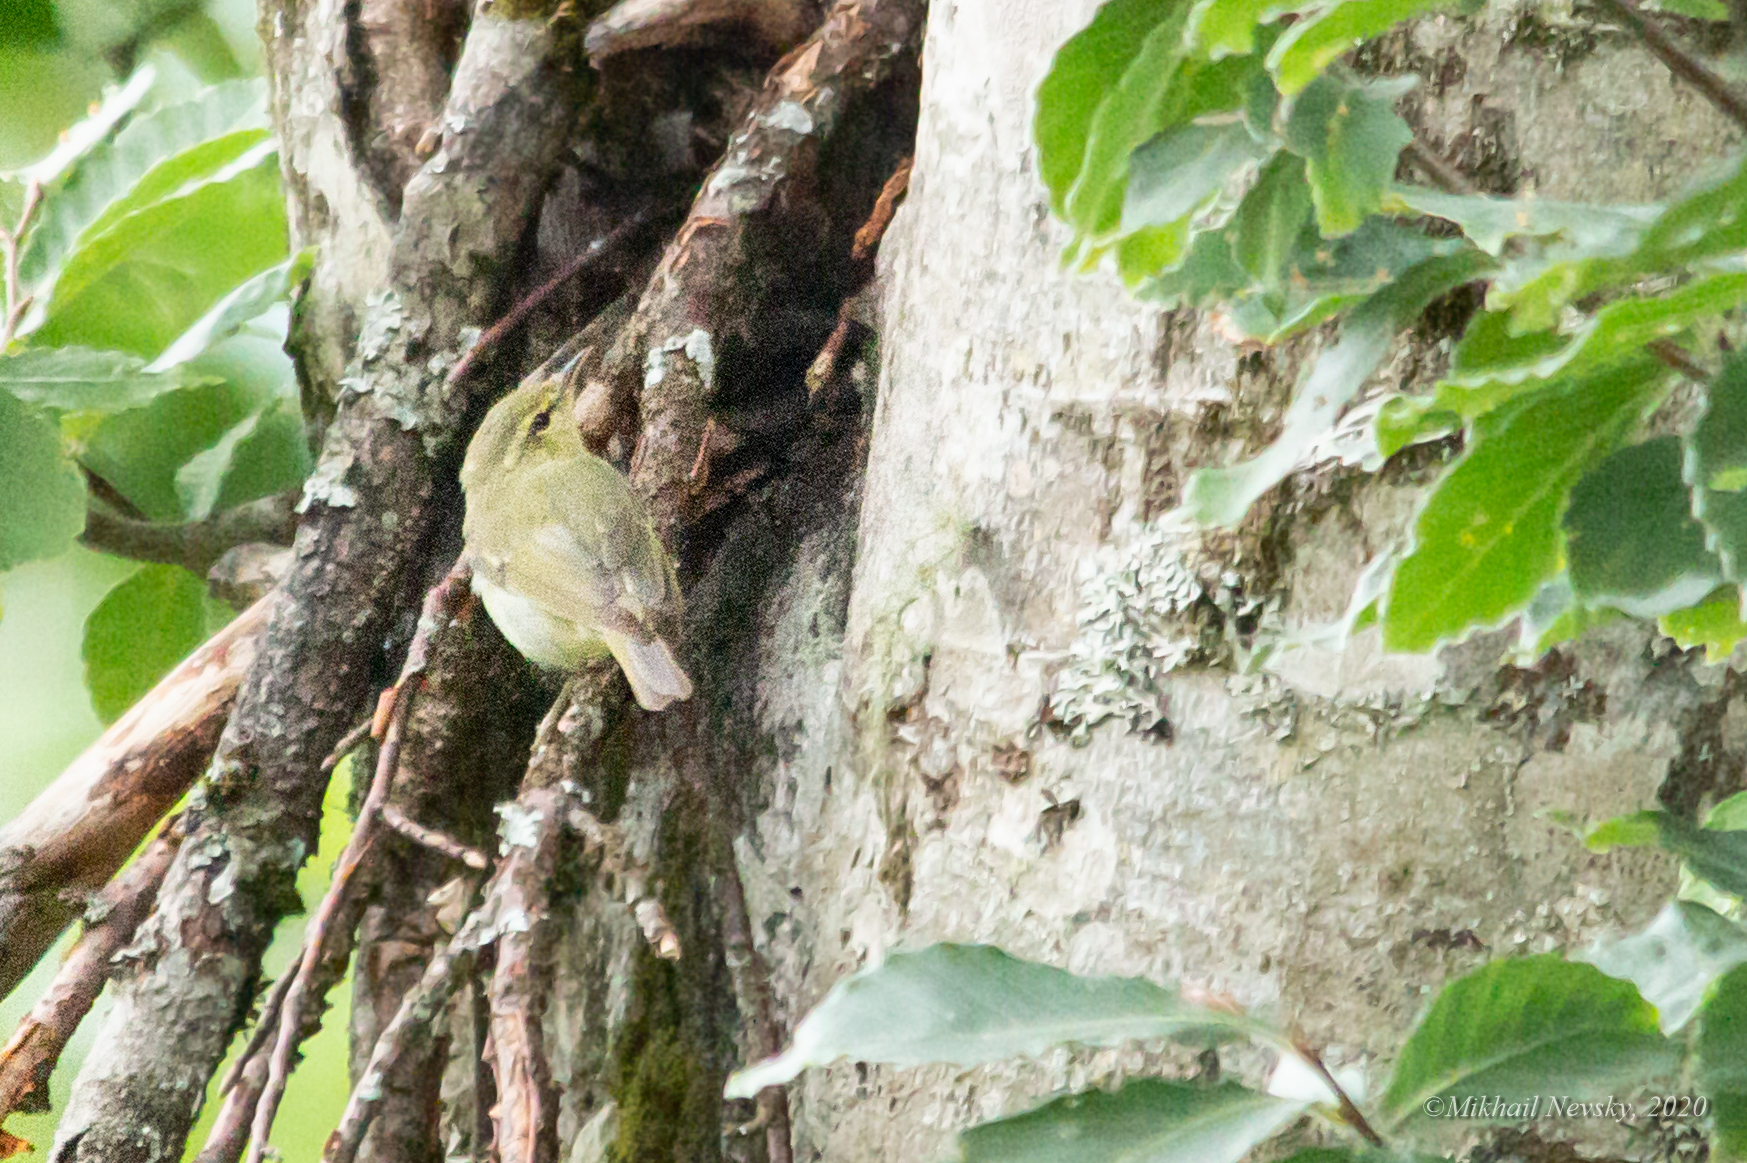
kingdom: Animalia
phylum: Chordata
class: Aves
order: Passeriformes
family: Phylloscopidae
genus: Phylloscopus
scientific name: Phylloscopus nitidus
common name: Green warbler
